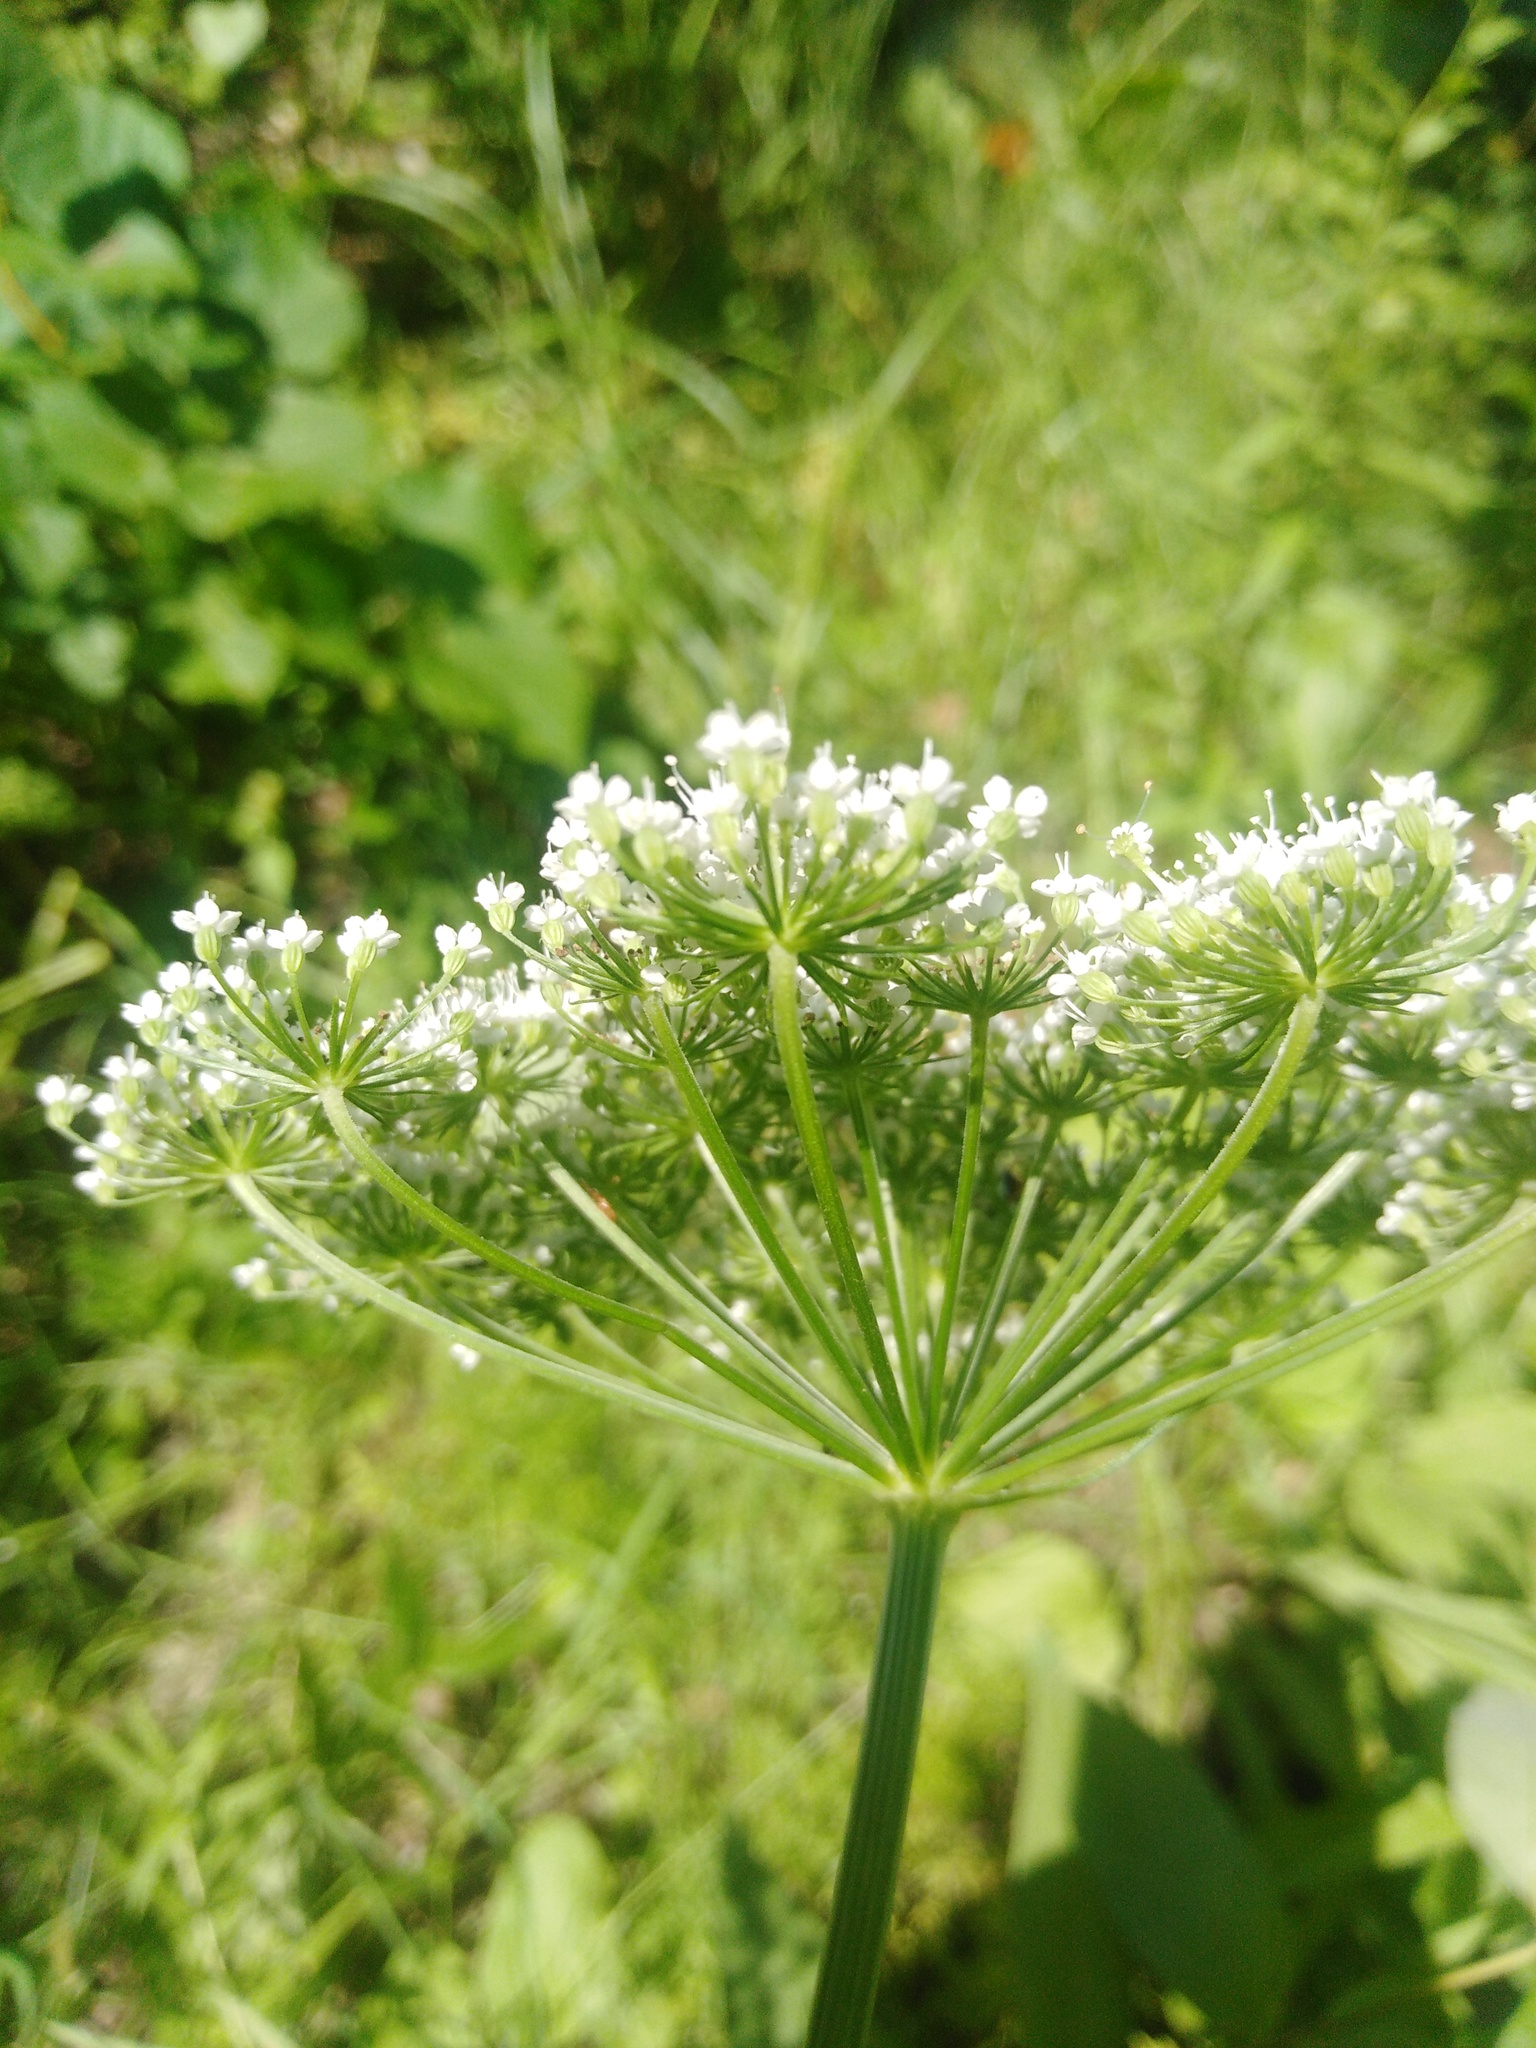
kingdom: Plantae
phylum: Tracheophyta
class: Magnoliopsida
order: Apiales
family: Apiaceae
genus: Selinum
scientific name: Selinum carvifolia
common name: Cambridge milk-parsley
